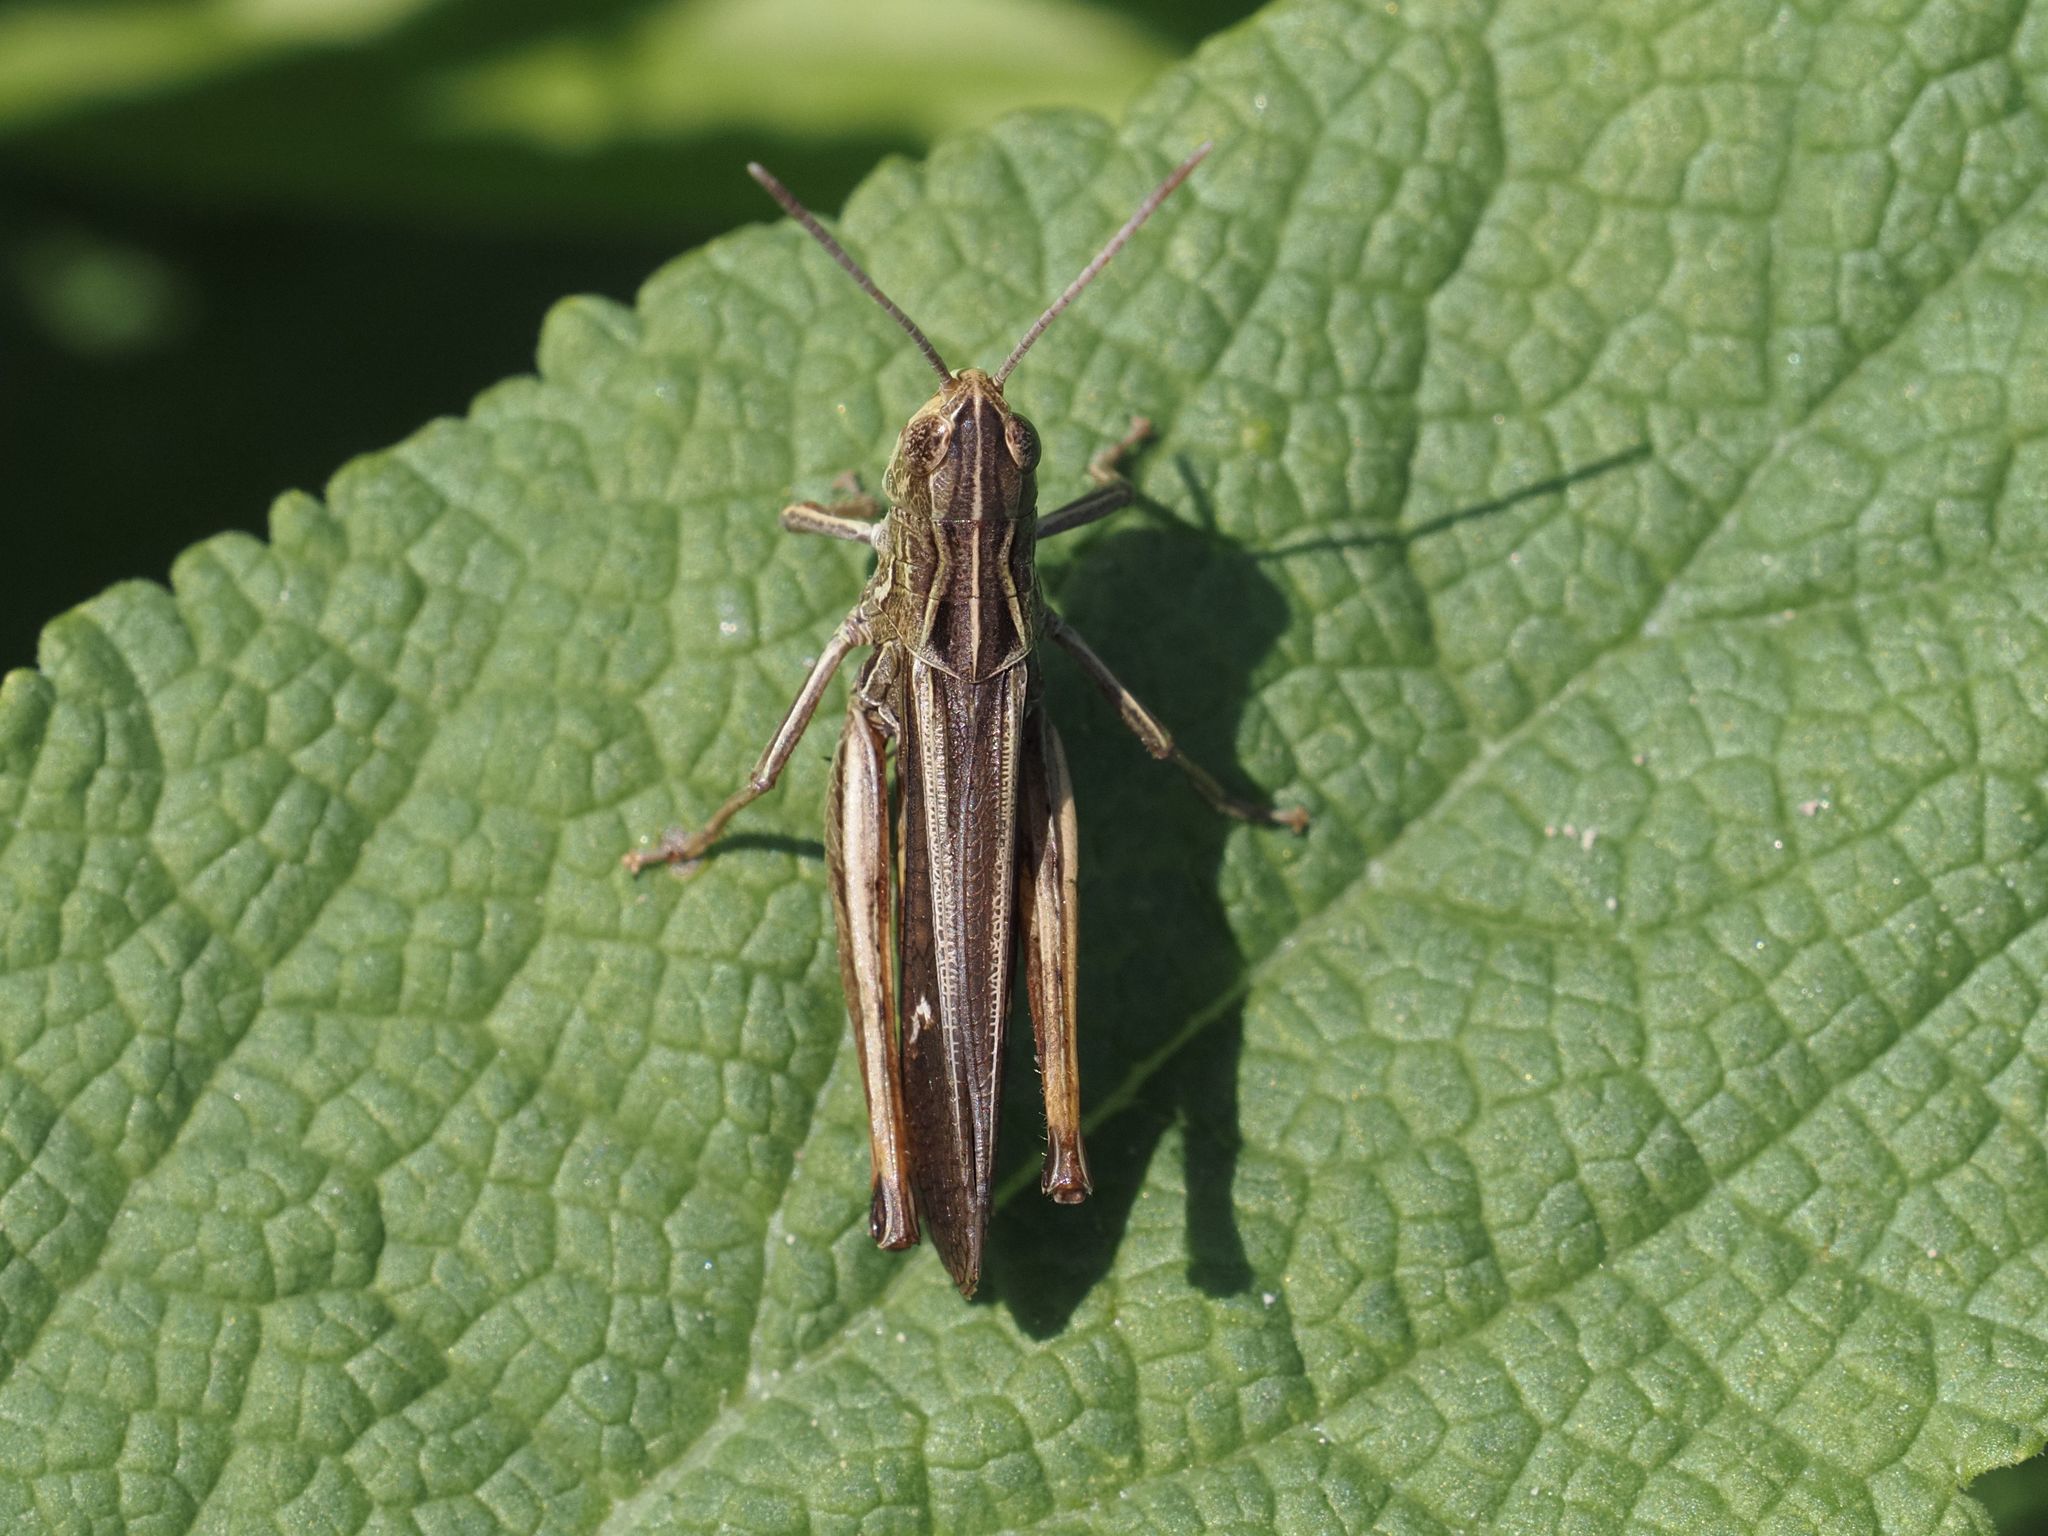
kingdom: Animalia
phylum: Arthropoda
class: Insecta
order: Orthoptera
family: Acrididae
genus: Stenobothrus
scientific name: Stenobothrus lineatus
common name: Stripe-winged grasshopper
